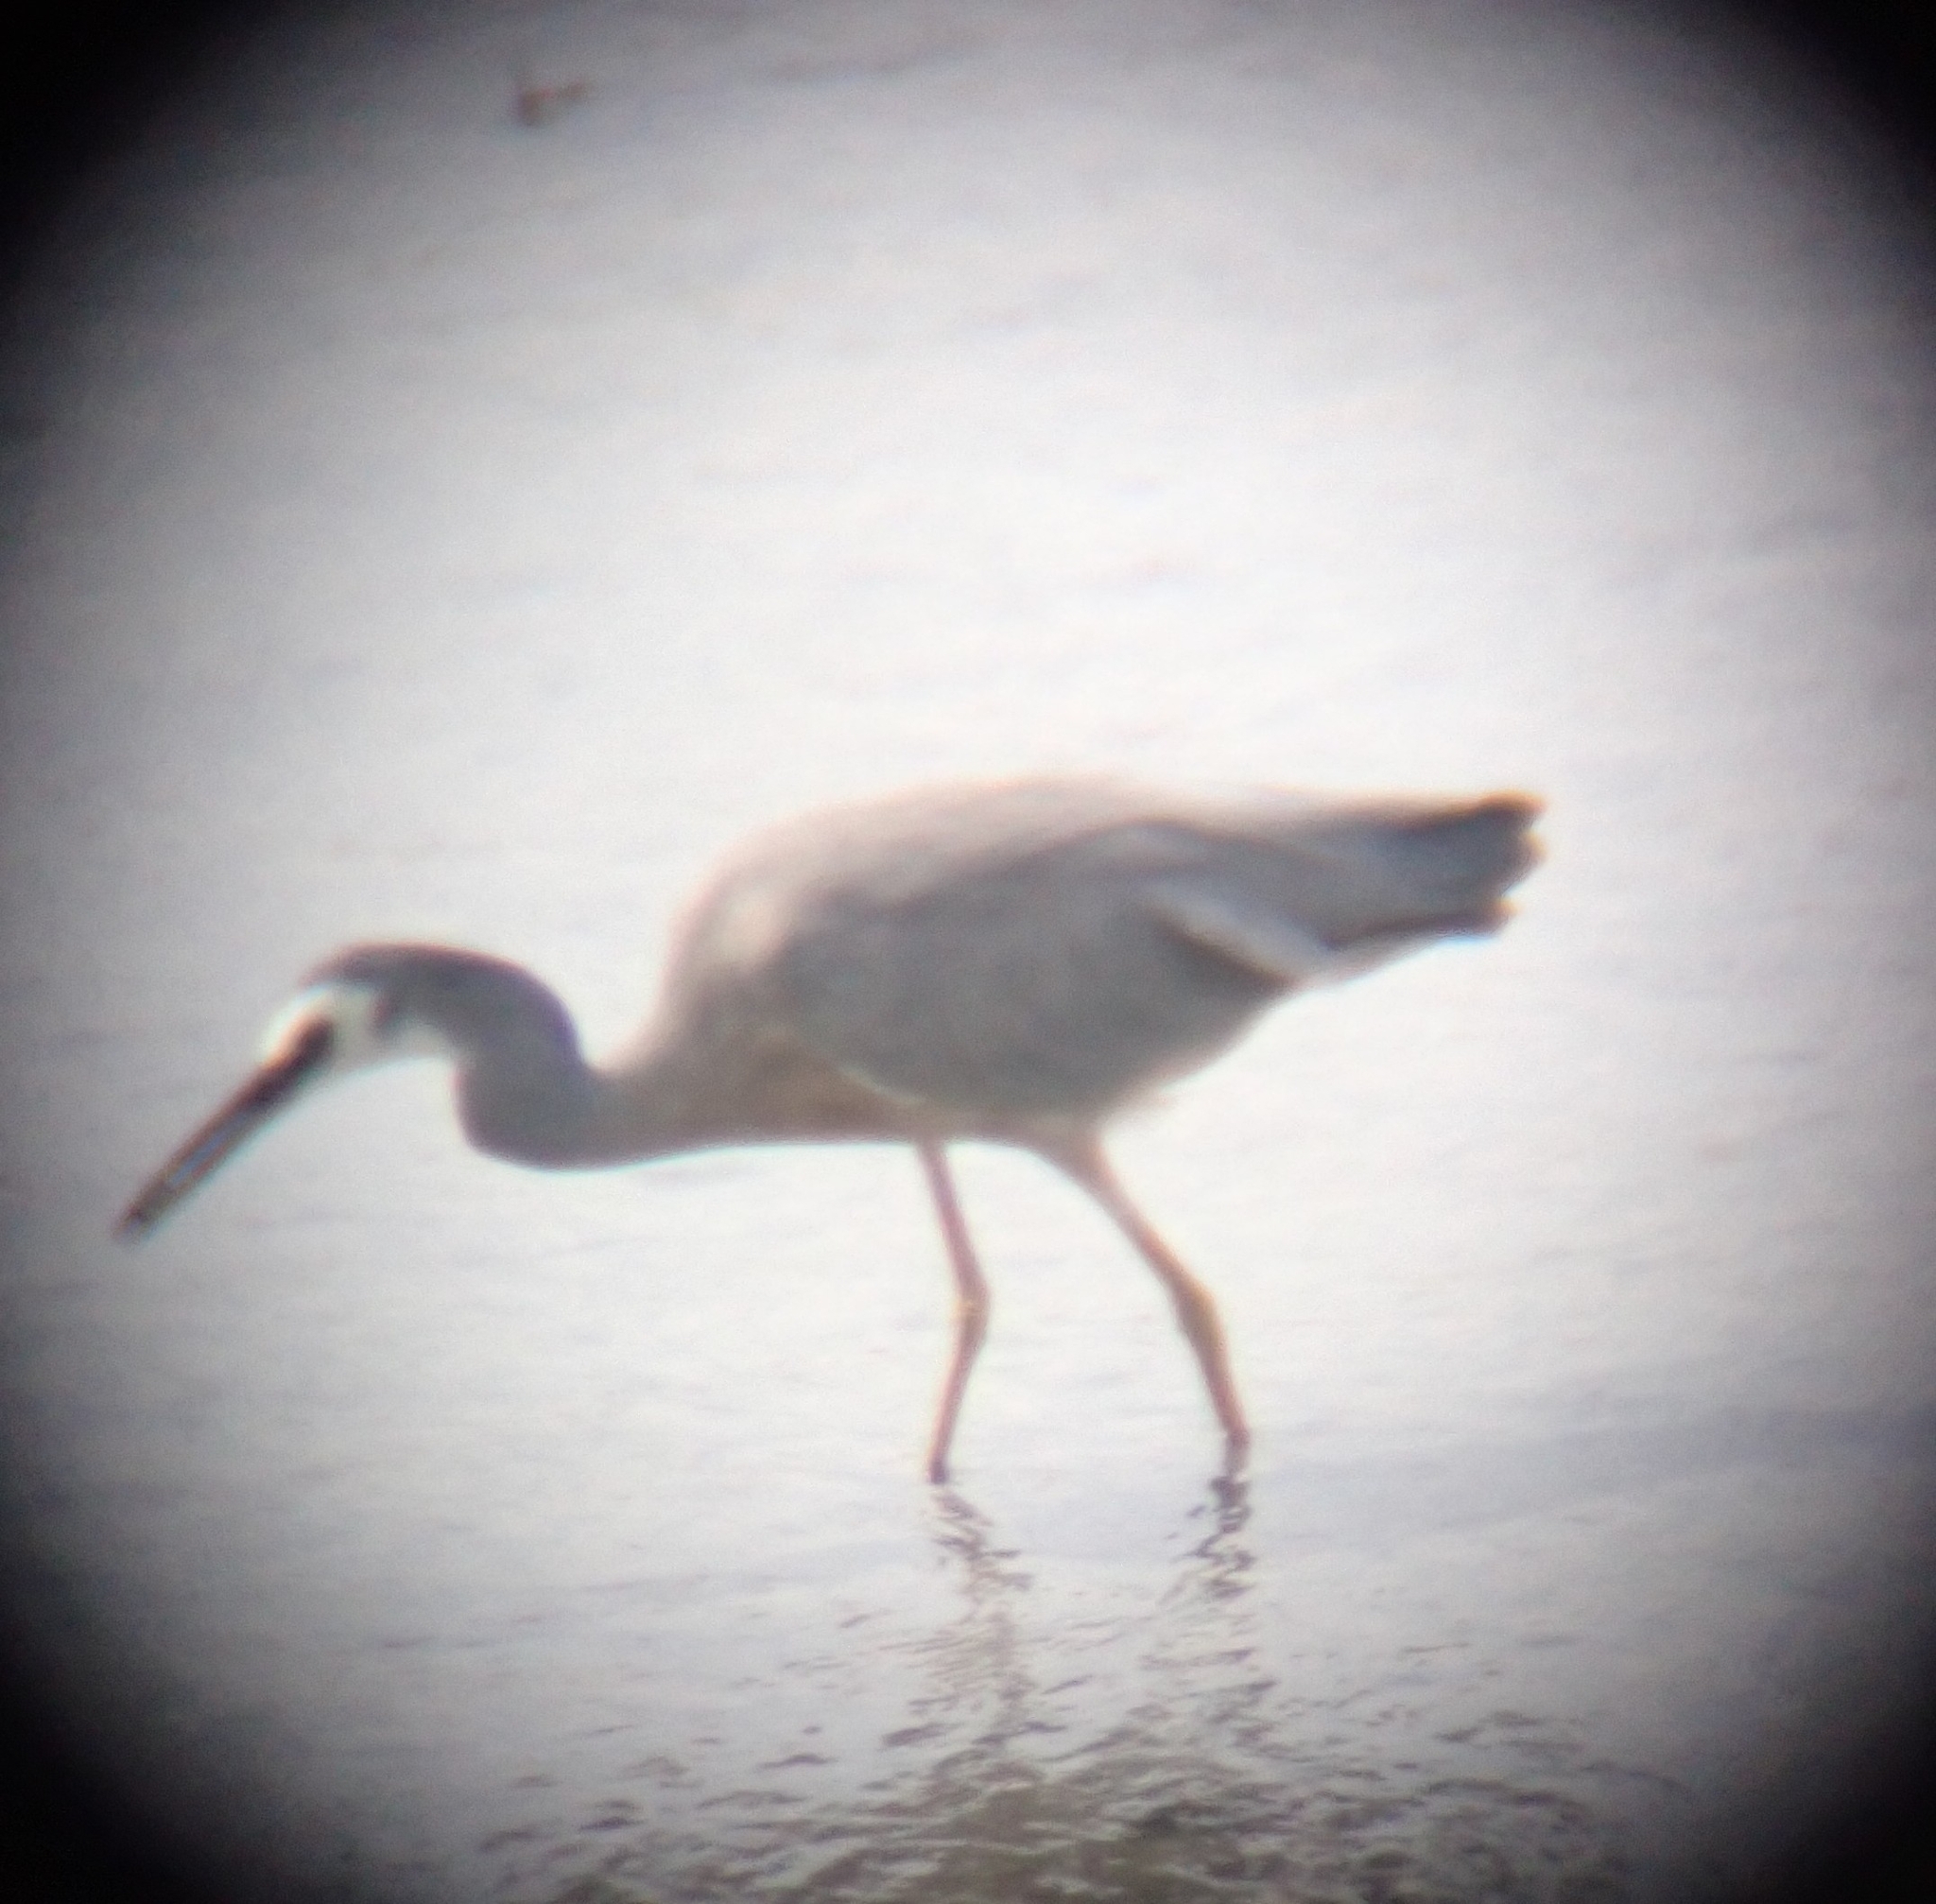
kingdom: Animalia
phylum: Chordata
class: Aves
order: Pelecaniformes
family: Ardeidae
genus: Egretta
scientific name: Egretta novaehollandiae
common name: White-faced heron
